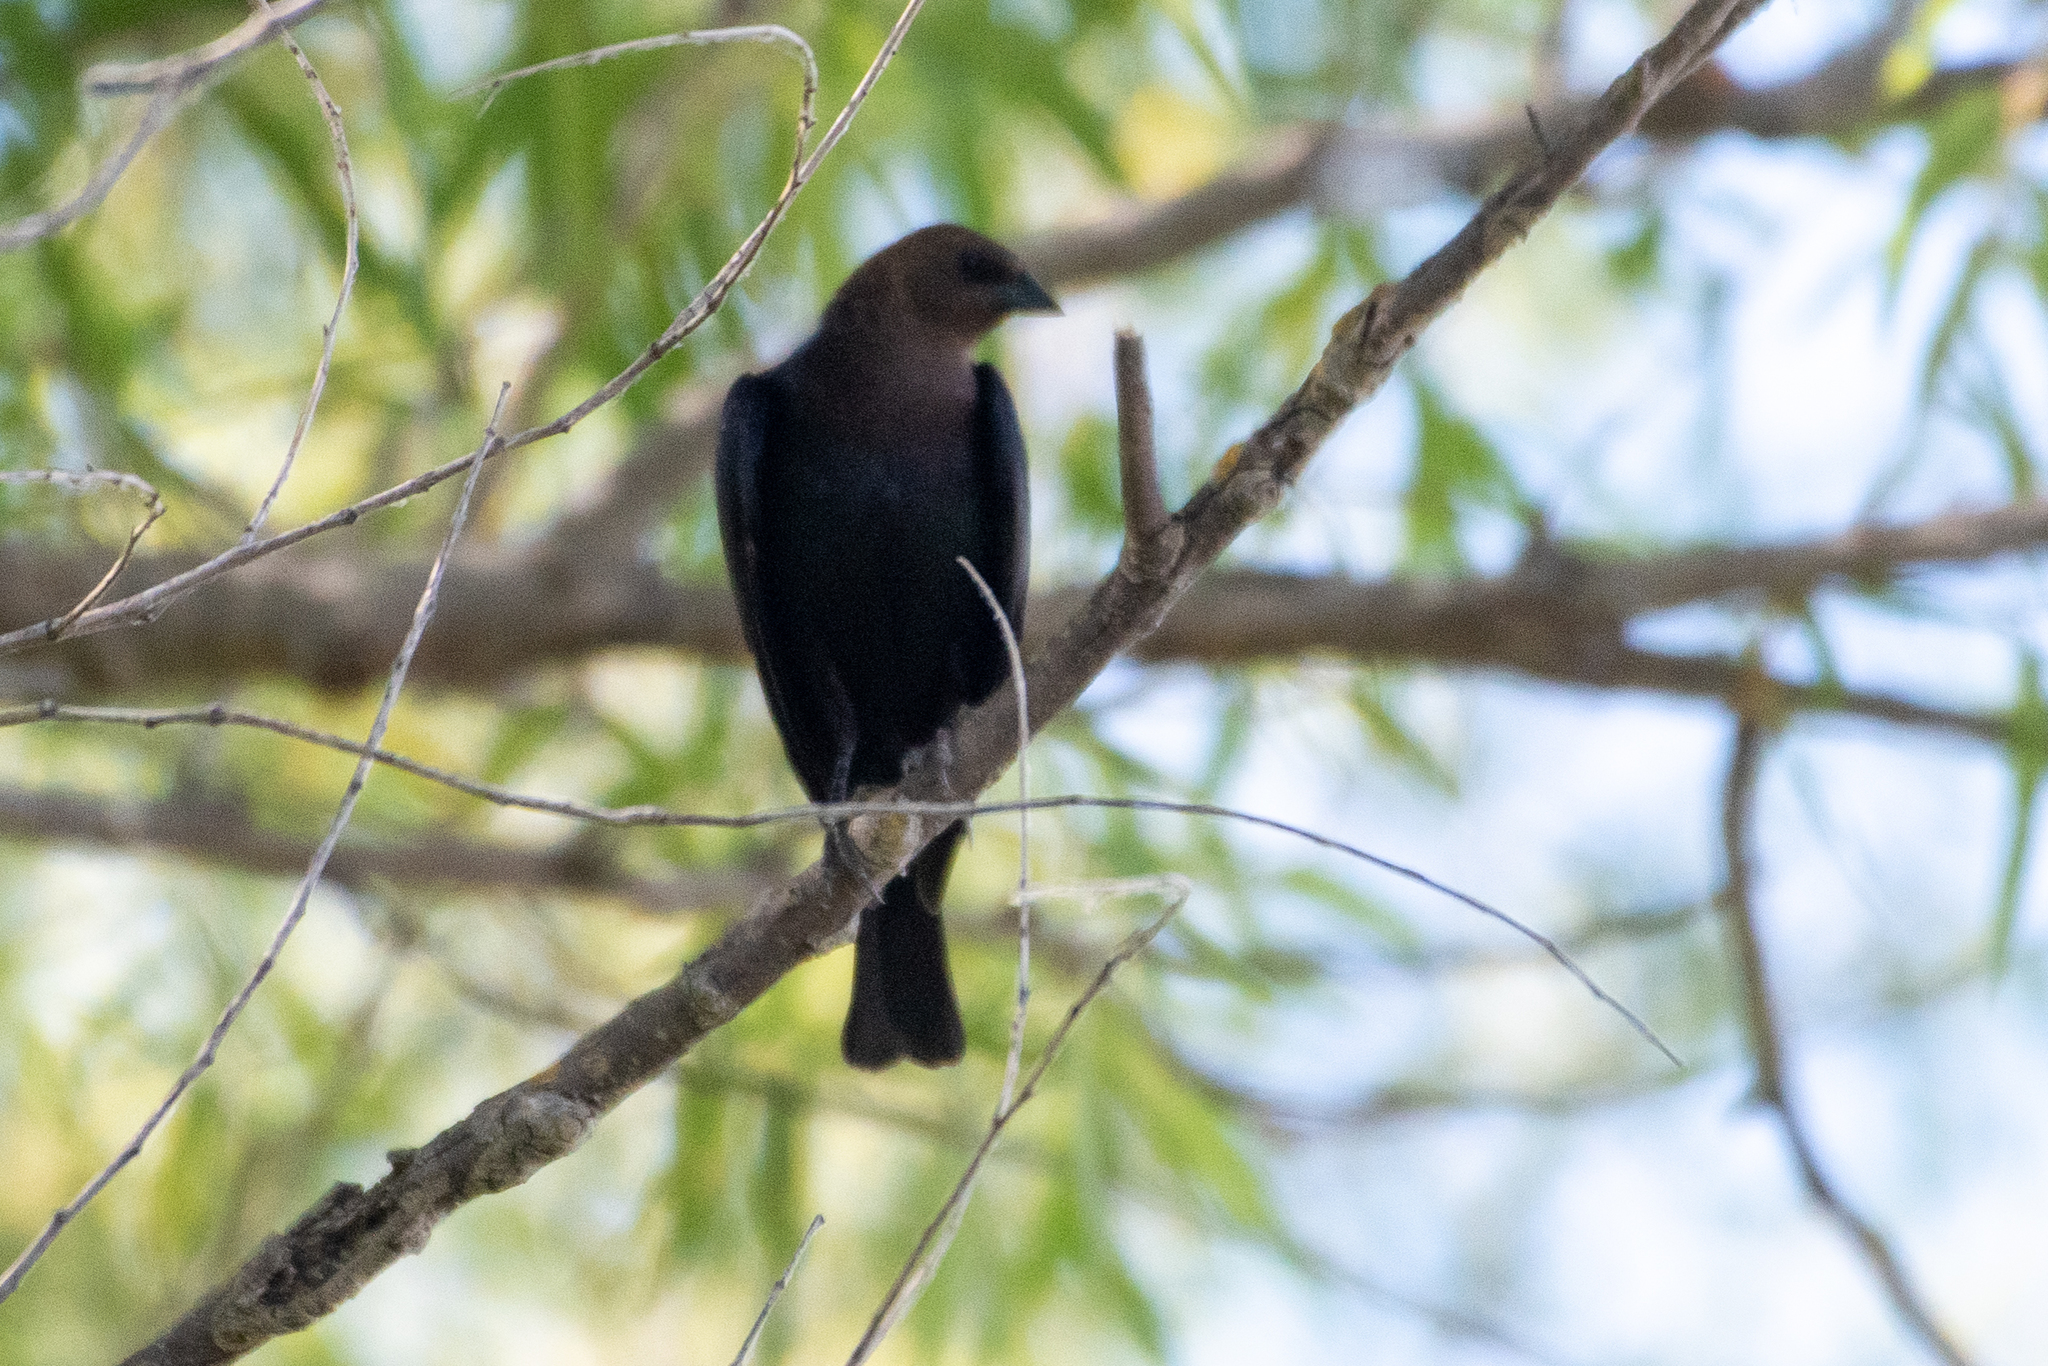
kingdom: Animalia
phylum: Chordata
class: Aves
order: Passeriformes
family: Icteridae
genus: Molothrus
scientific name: Molothrus ater
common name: Brown-headed cowbird
